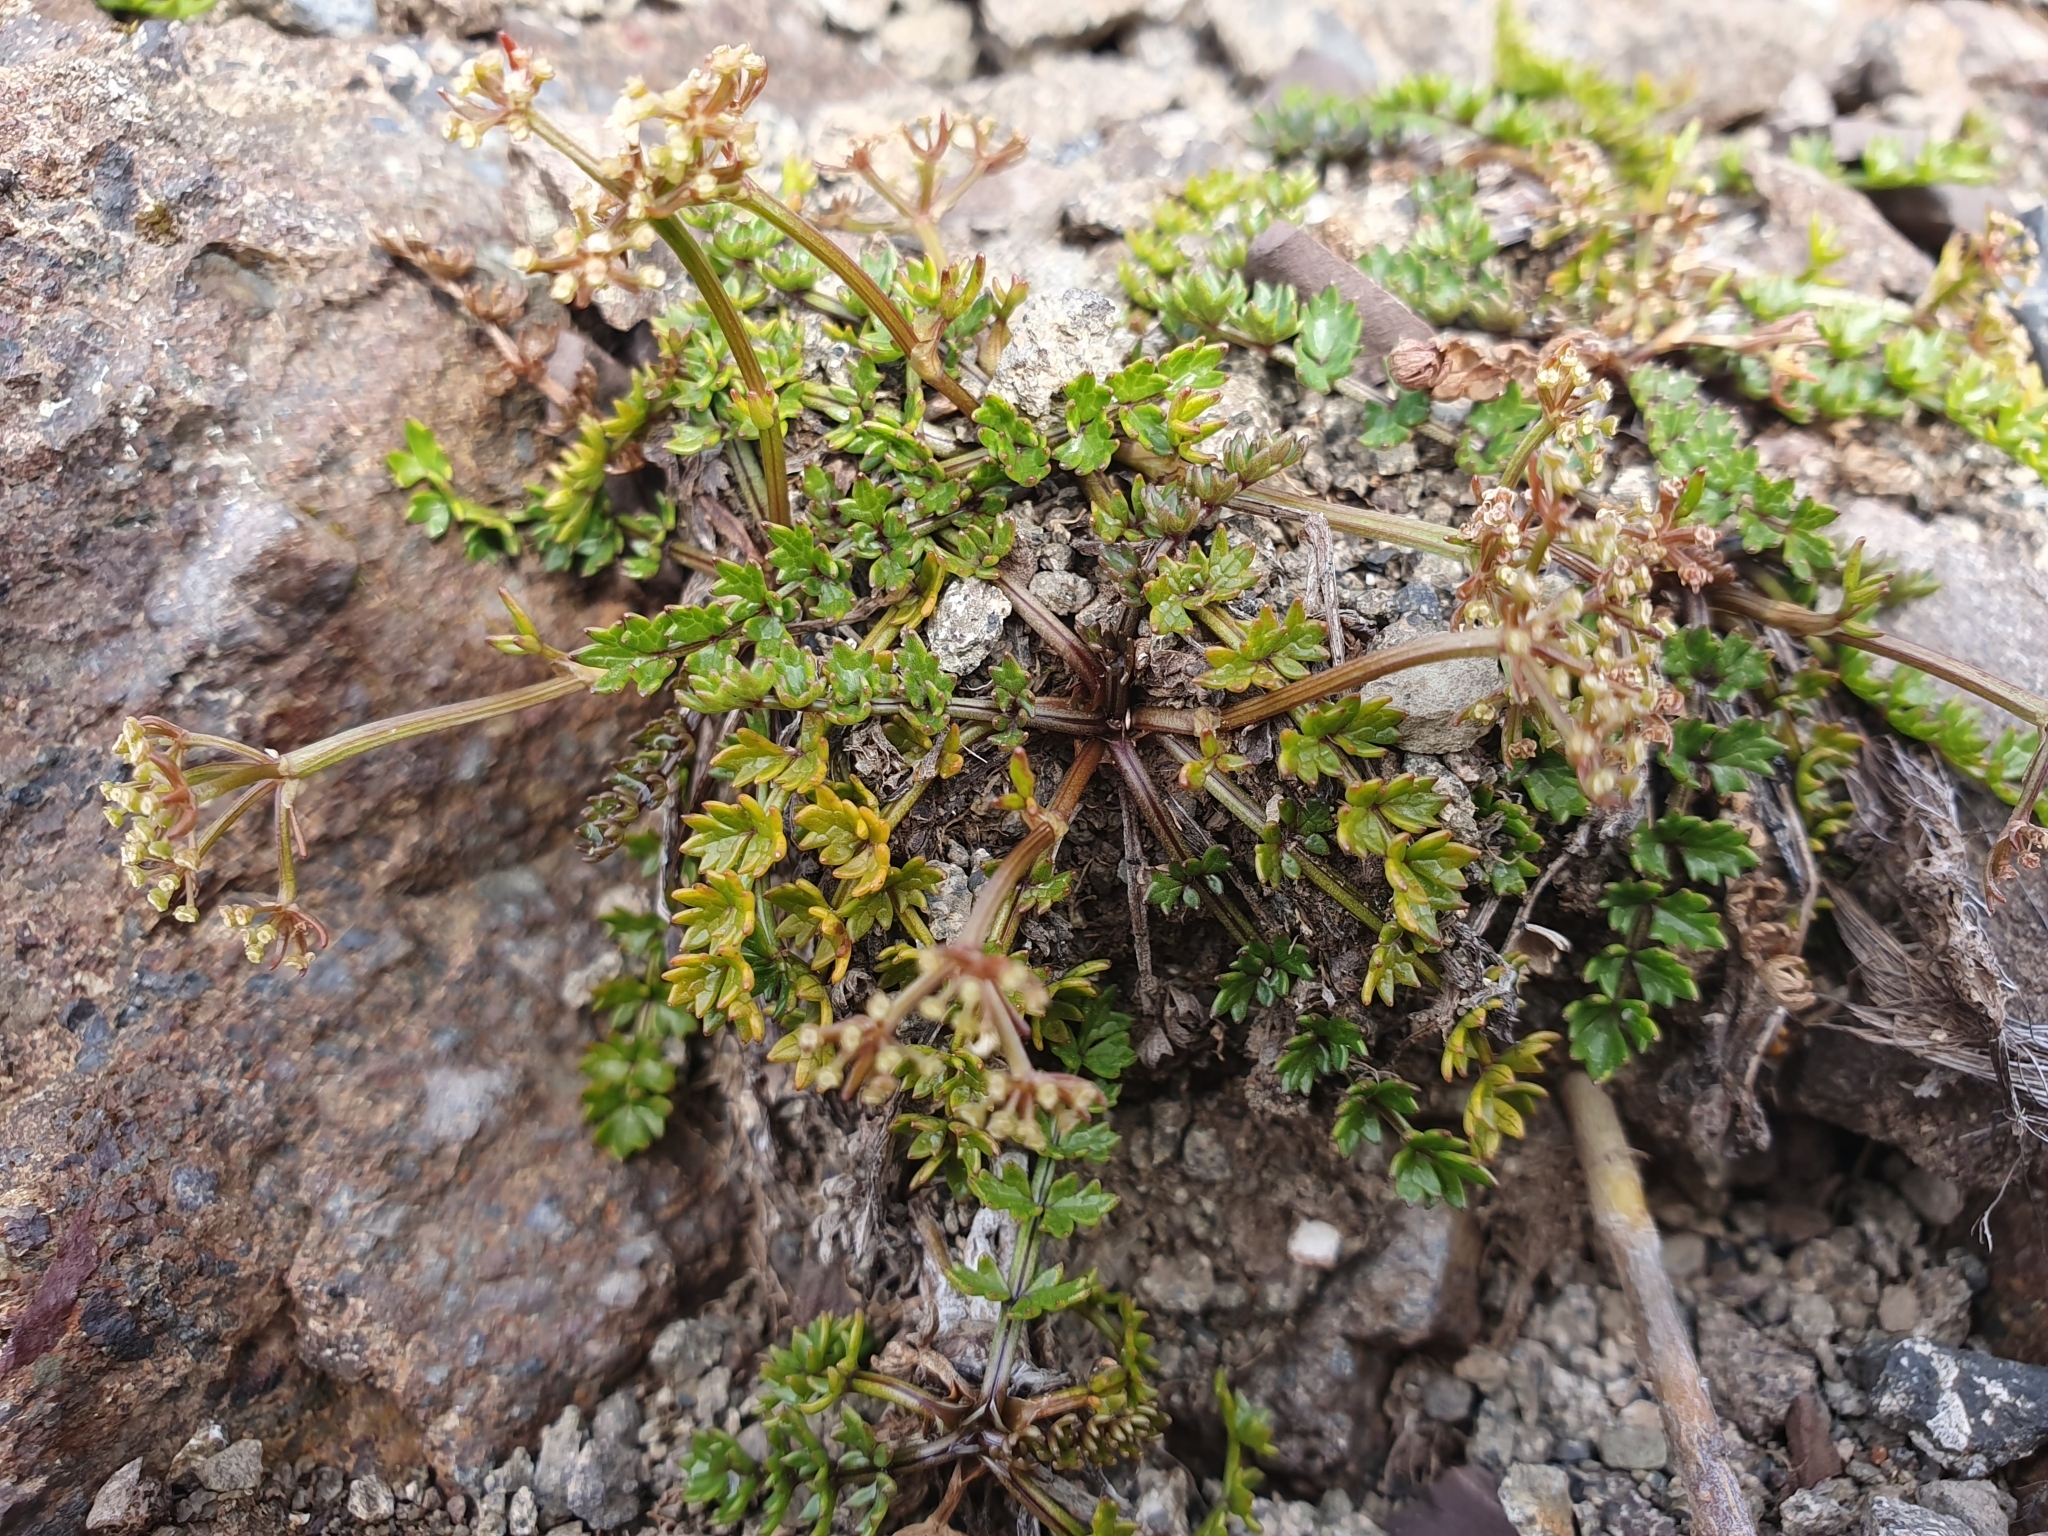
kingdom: Plantae
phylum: Tracheophyta
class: Magnoliopsida
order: Apiales
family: Apiaceae
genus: Gingidia
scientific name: Gingidia decipiens
